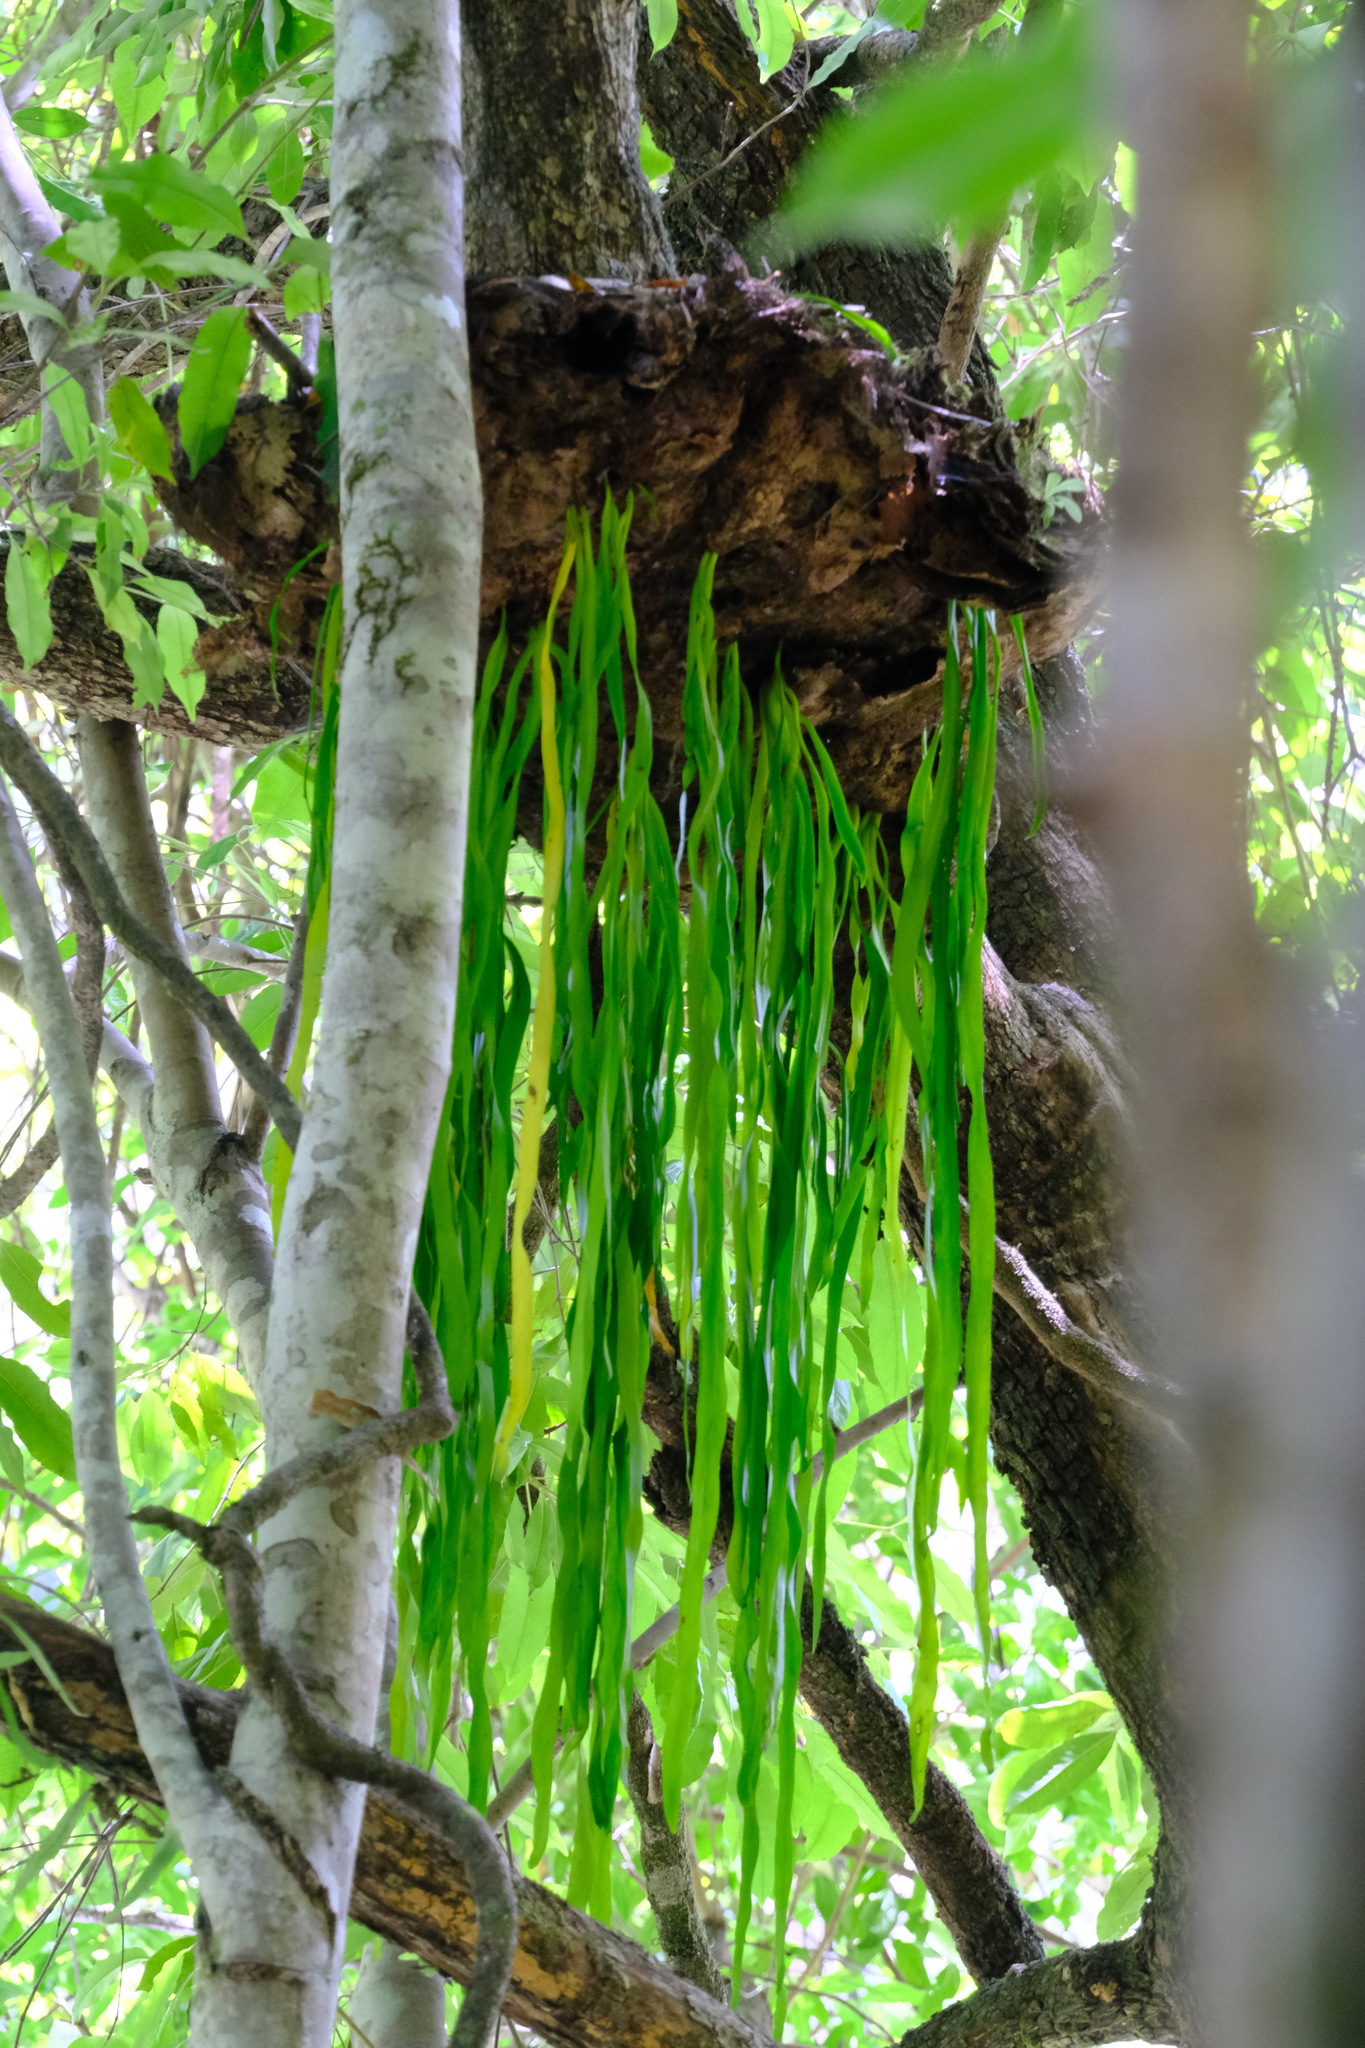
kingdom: Plantae
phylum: Tracheophyta
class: Polypodiopsida
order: Ophioglossales
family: Ophioglossaceae
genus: Ophioderma
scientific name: Ophioderma pendulum
